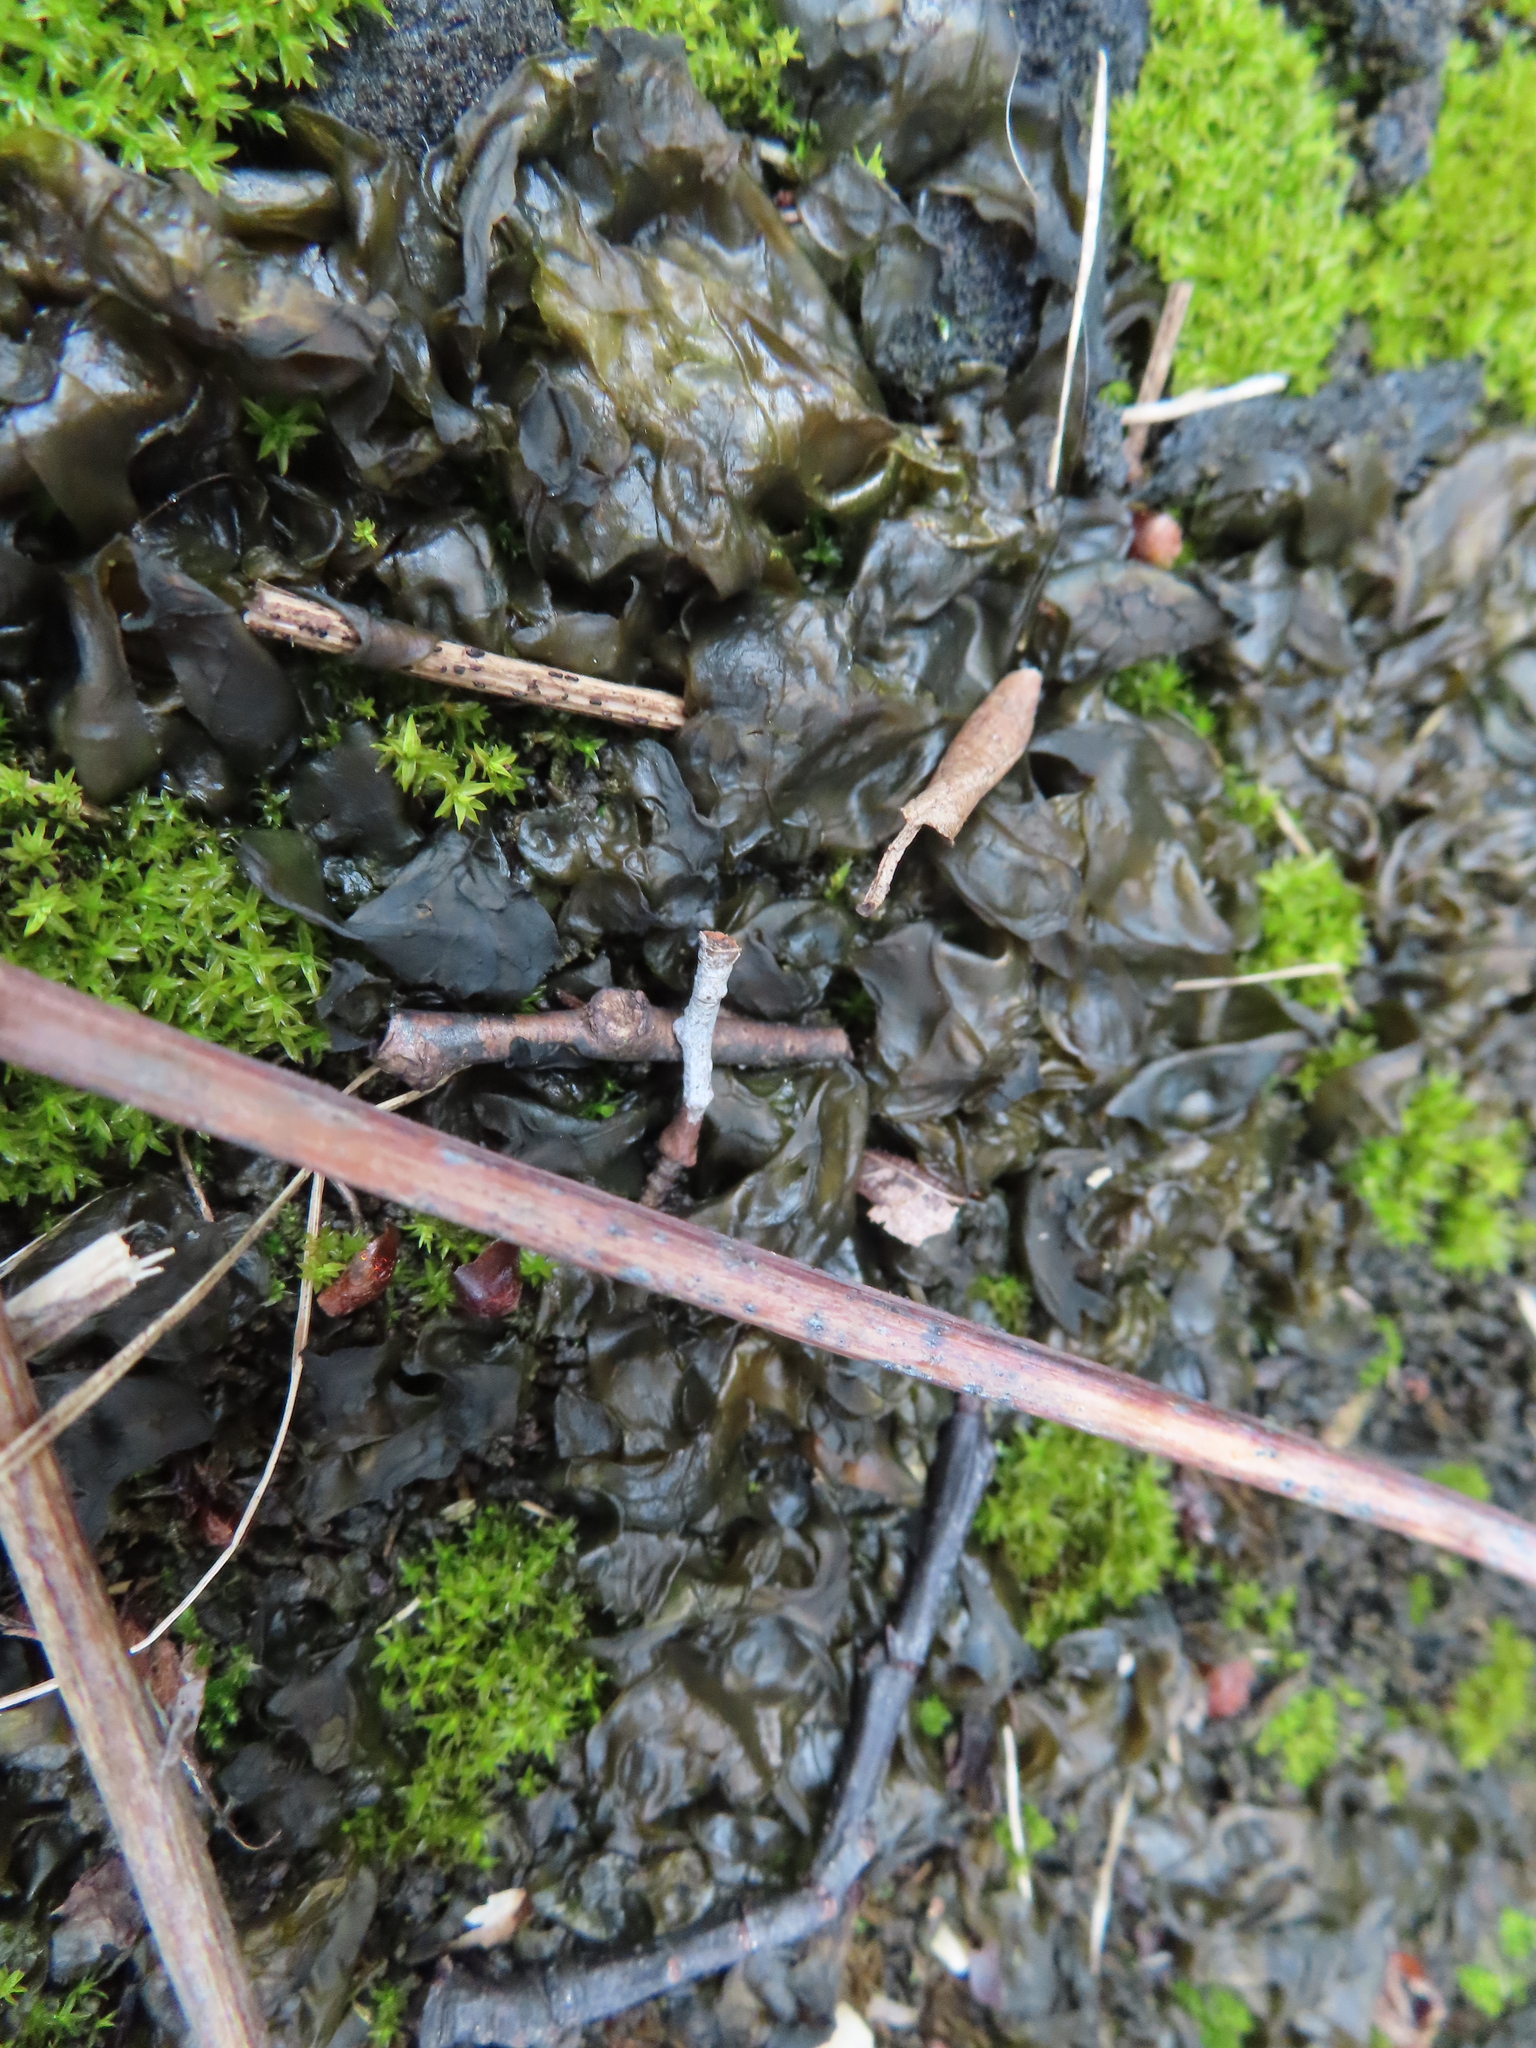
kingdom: Bacteria
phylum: Cyanobacteria
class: Cyanobacteriia
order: Cyanobacteriales
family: Nostocaceae
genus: Nostoc
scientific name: Nostoc commune
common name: Star jelly
